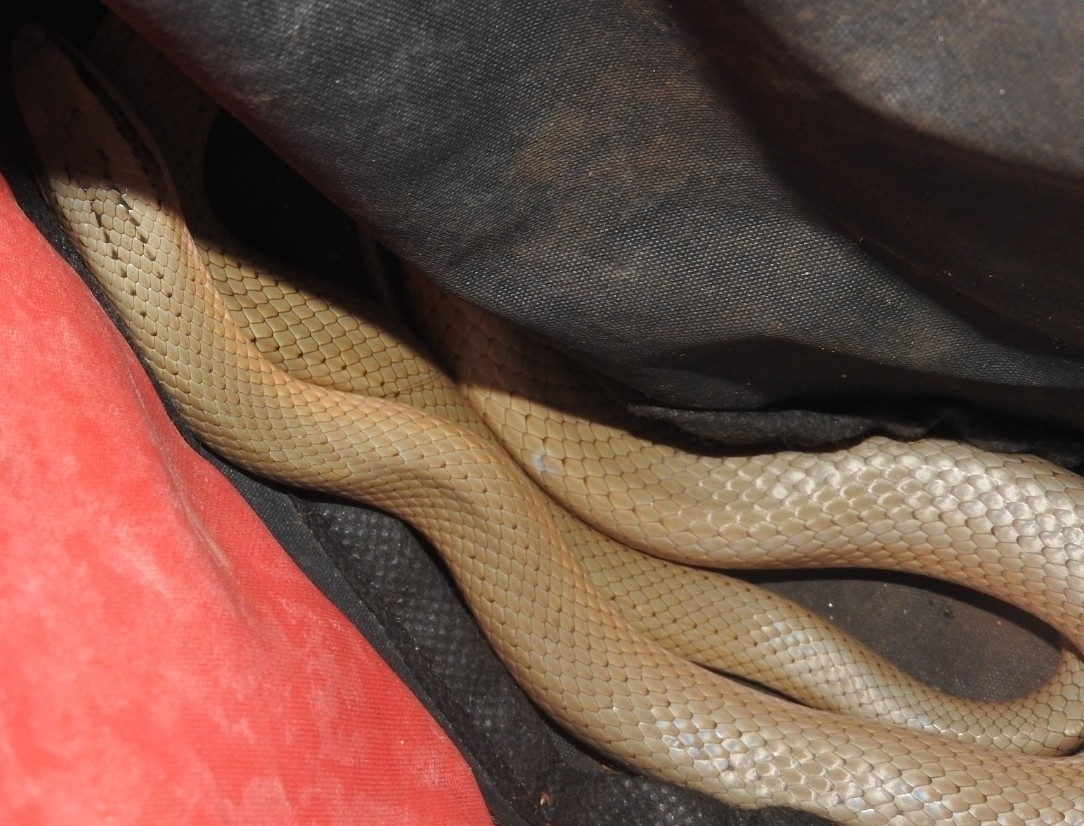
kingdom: Animalia
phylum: Chordata
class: Squamata
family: Colubridae
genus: Conophis
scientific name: Conophis lineatus
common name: Road guarder
